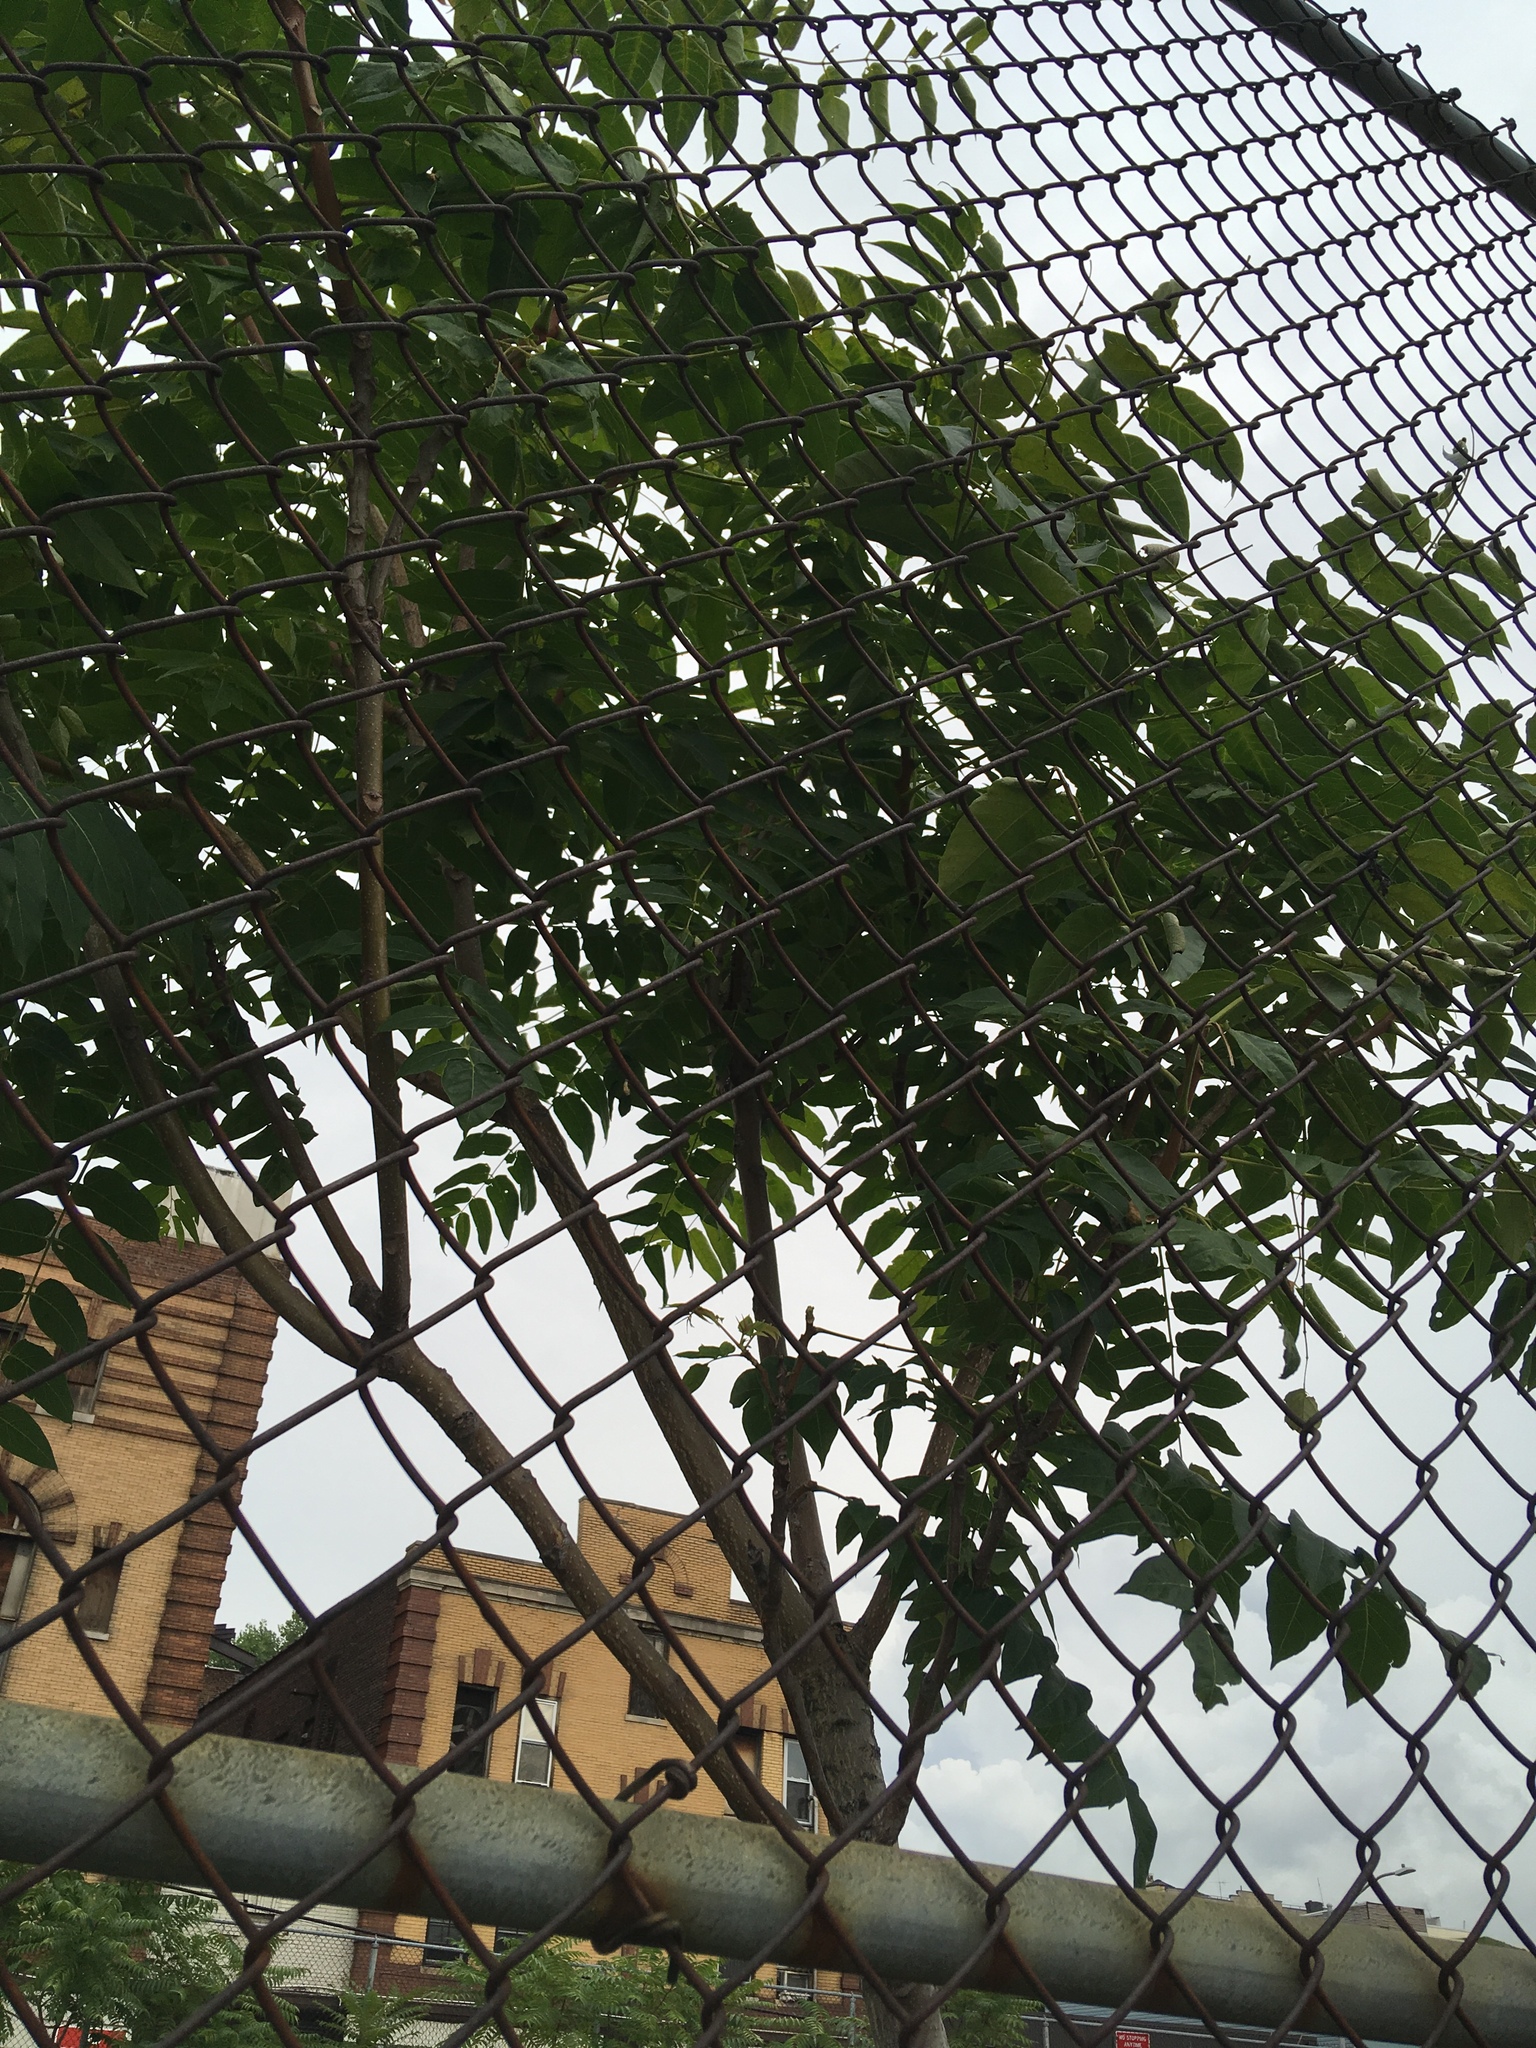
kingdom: Plantae
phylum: Tracheophyta
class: Magnoliopsida
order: Sapindales
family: Simaroubaceae
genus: Ailanthus
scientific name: Ailanthus altissima
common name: Tree-of-heaven
